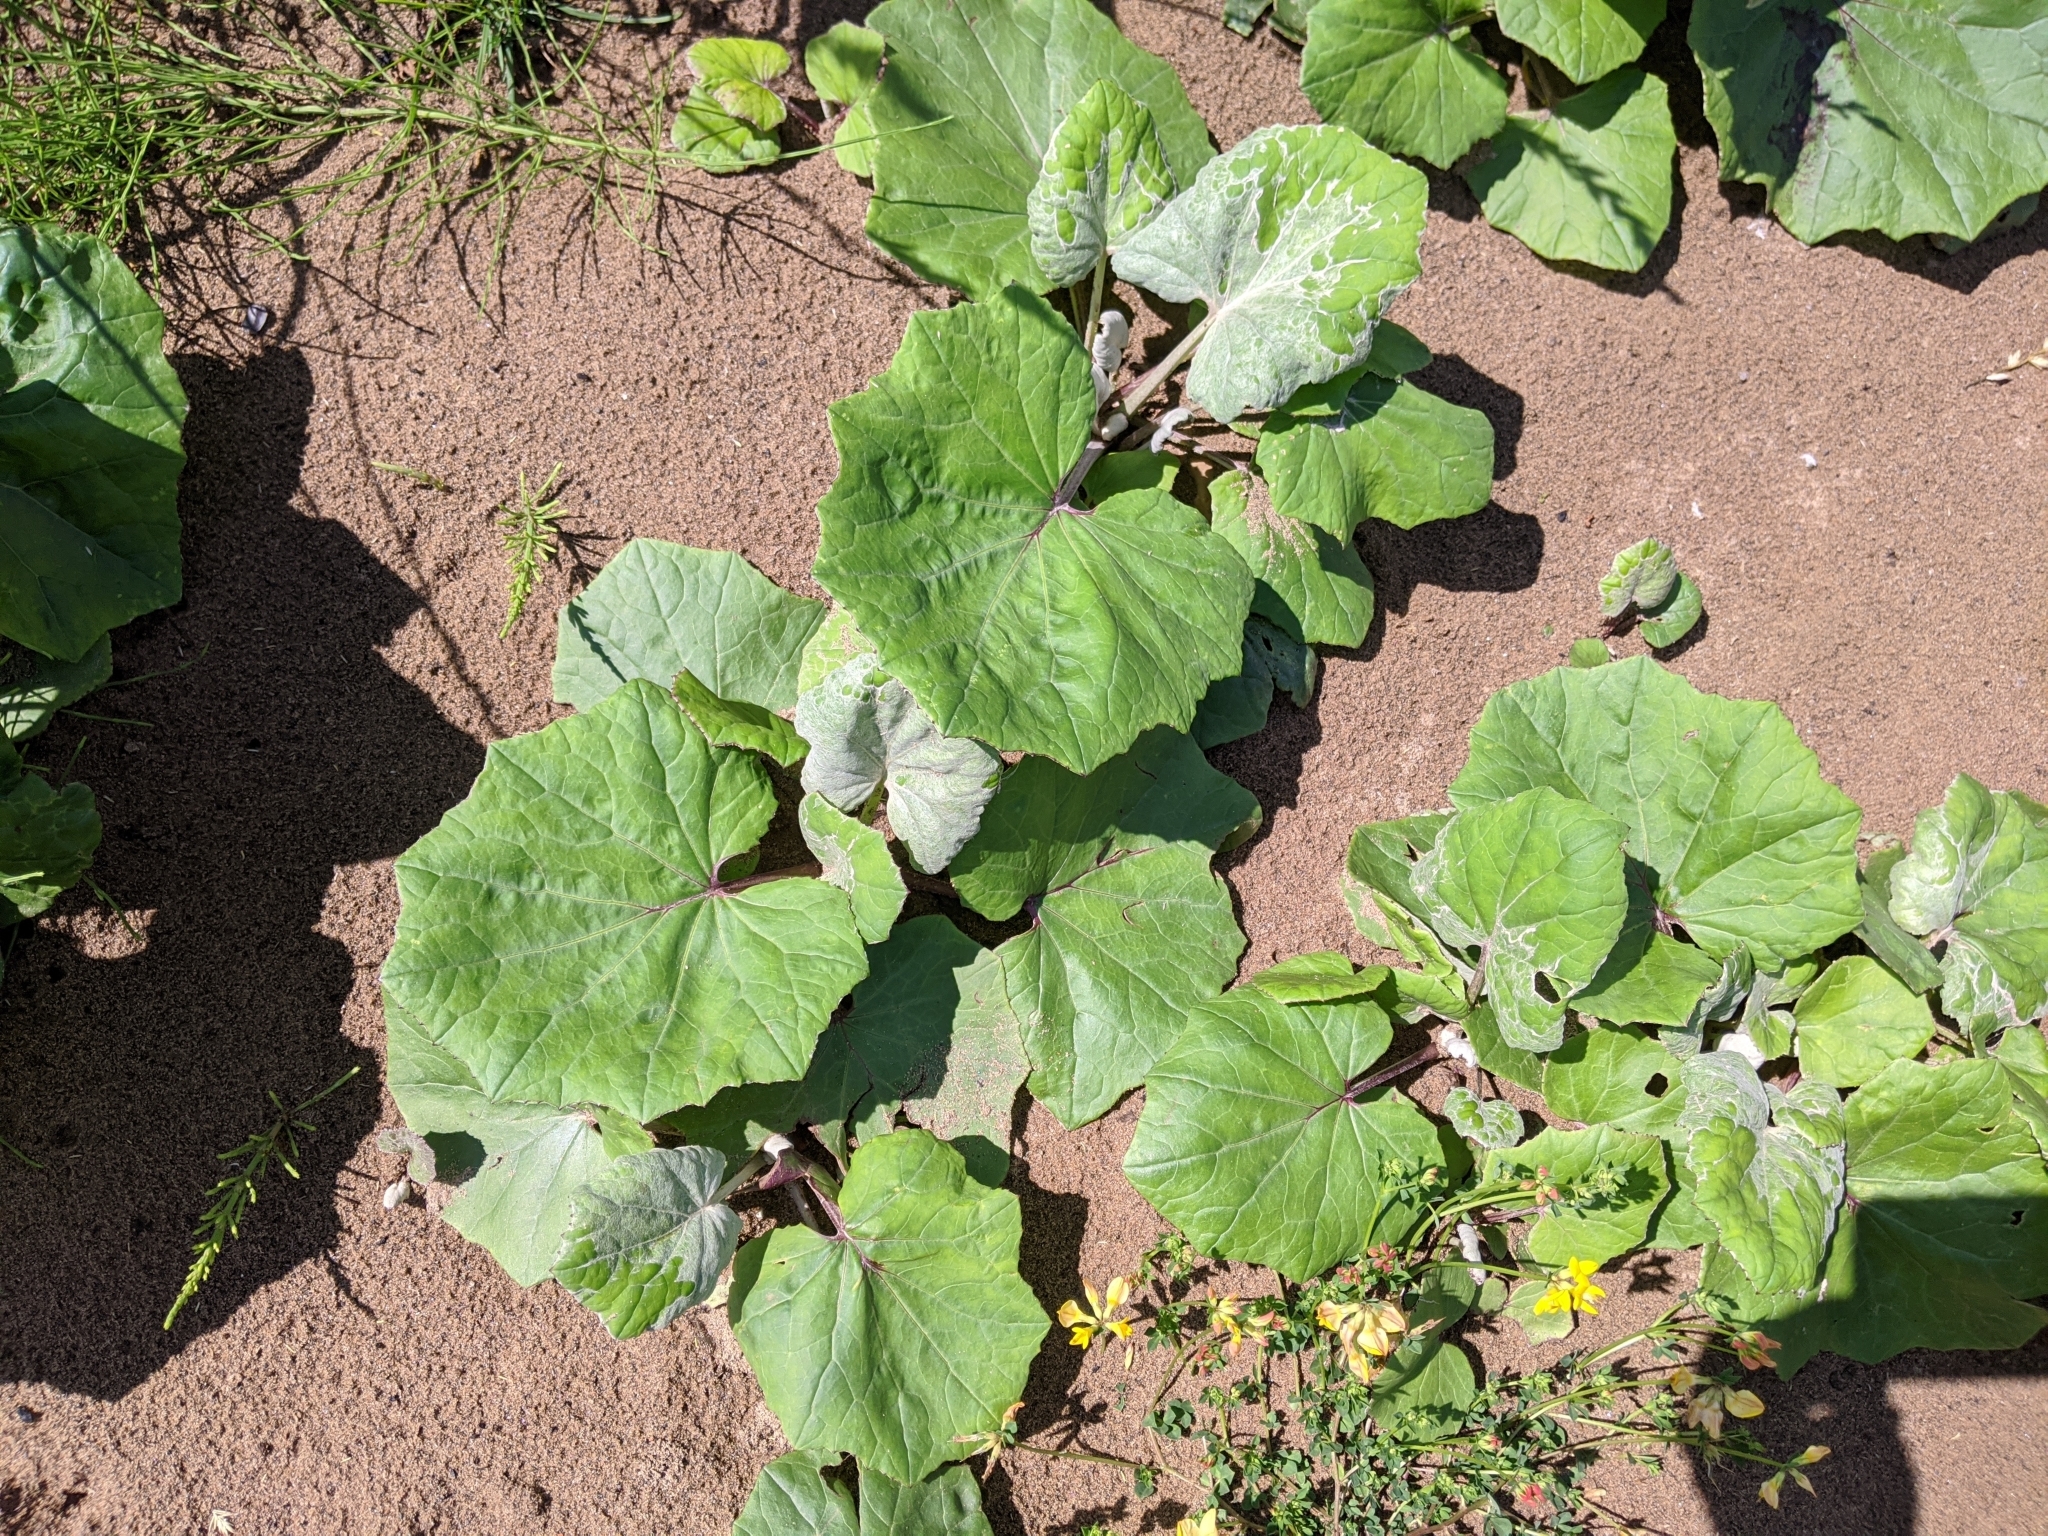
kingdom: Plantae
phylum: Tracheophyta
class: Magnoliopsida
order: Asterales
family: Asteraceae
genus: Tussilago
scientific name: Tussilago farfara
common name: Coltsfoot
